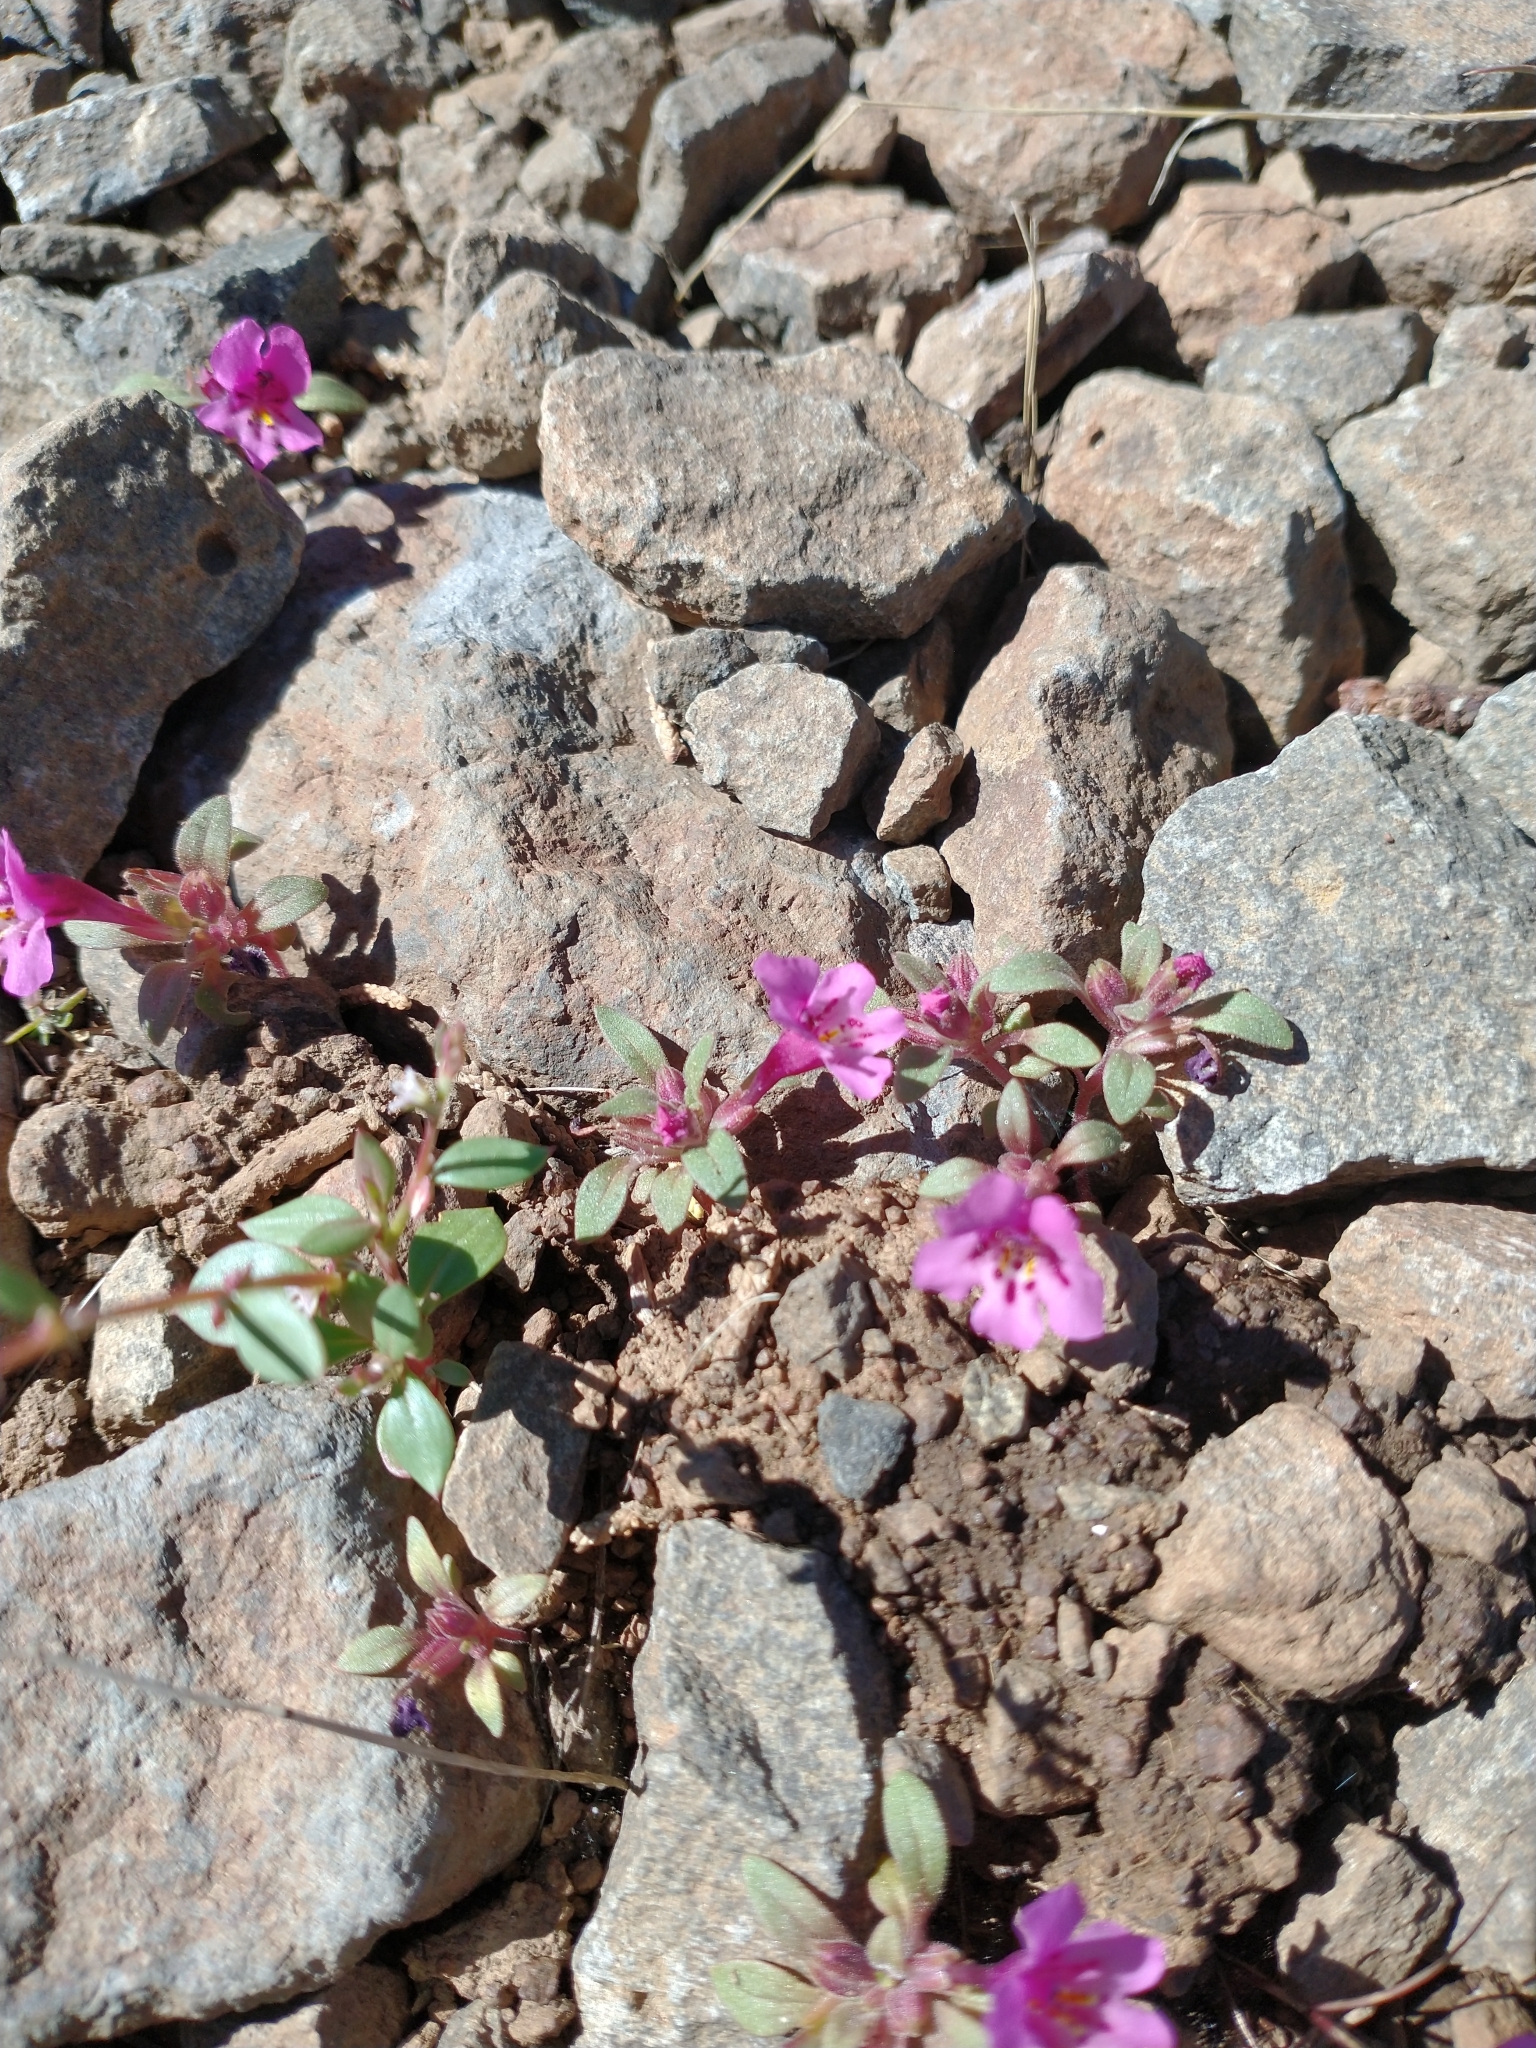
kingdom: Plantae
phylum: Tracheophyta
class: Magnoliopsida
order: Lamiales
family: Phrymaceae
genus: Diplacus
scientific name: Diplacus nanus
